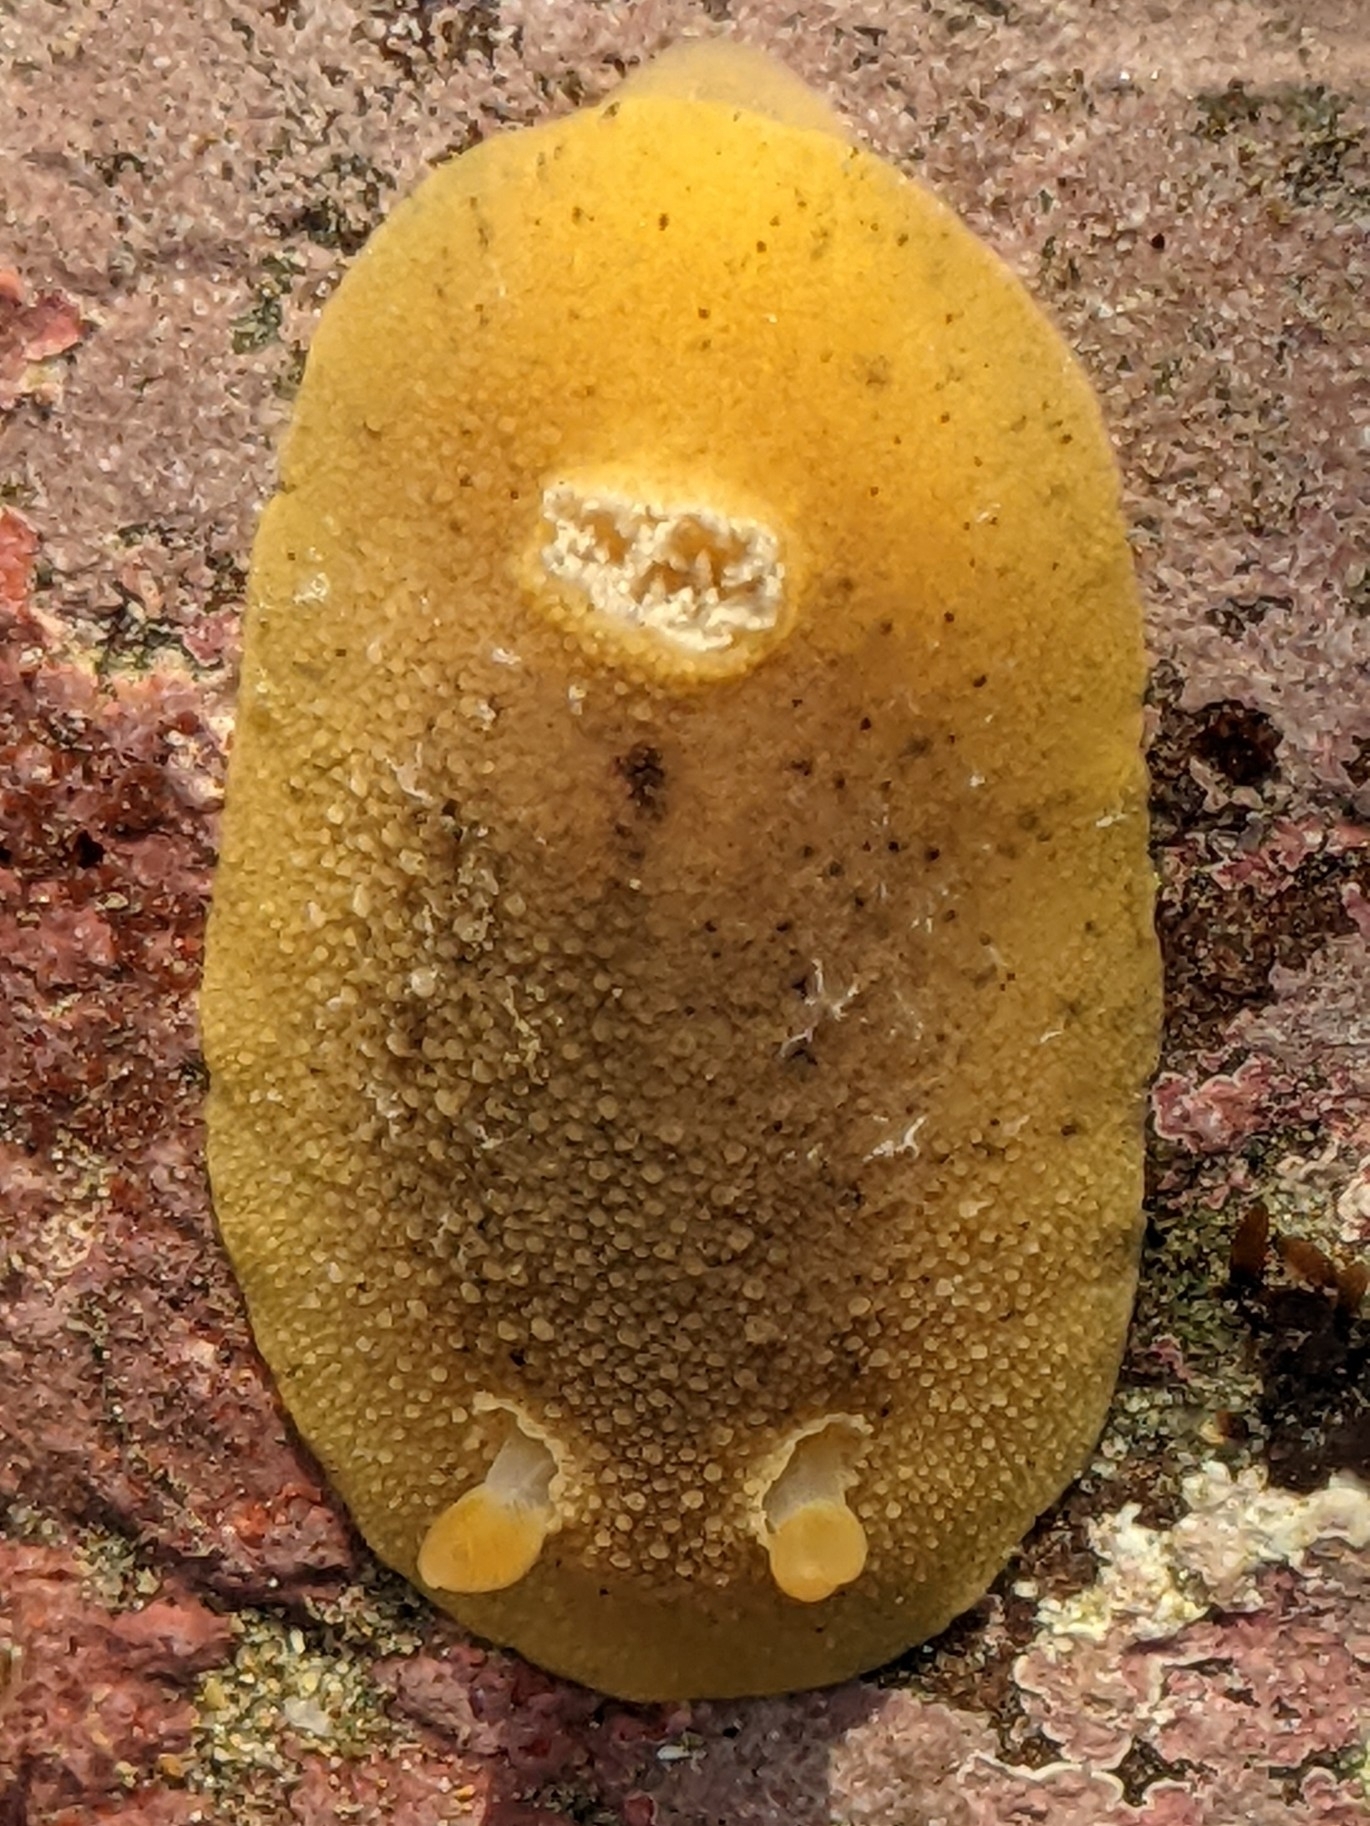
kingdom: Animalia
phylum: Mollusca
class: Gastropoda
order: Nudibranchia
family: Discodorididae
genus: Geitodoris
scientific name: Geitodoris heathi
